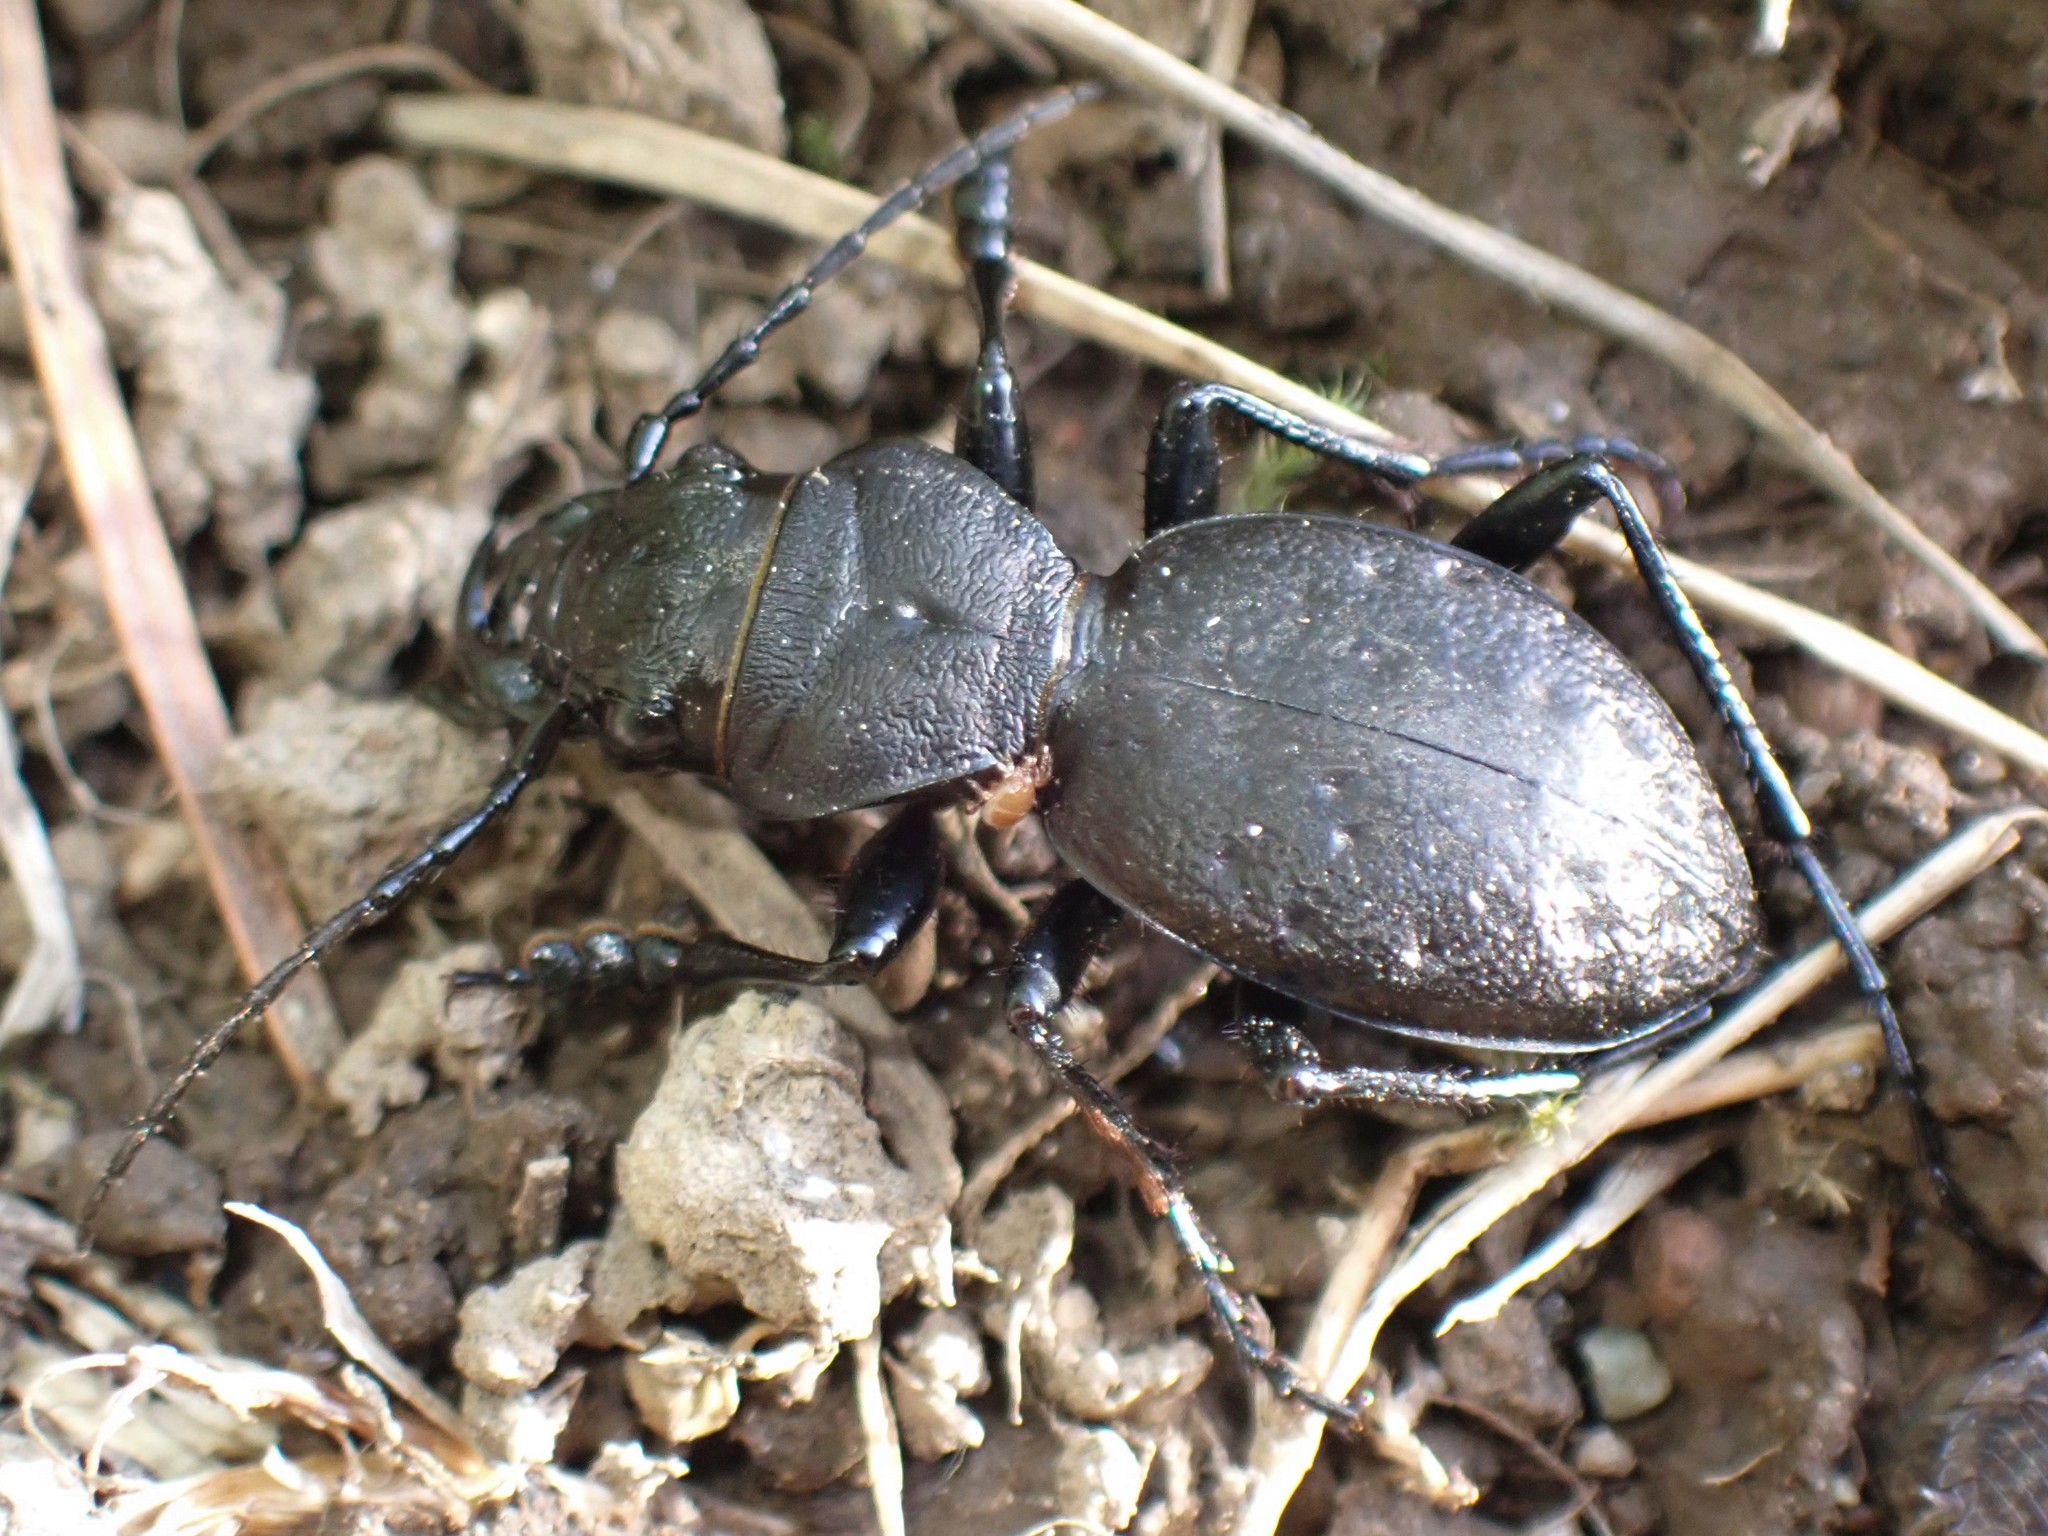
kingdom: Animalia
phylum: Arthropoda
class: Insecta
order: Coleoptera
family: Carabidae
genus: Omus
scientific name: Omus dejeanii
